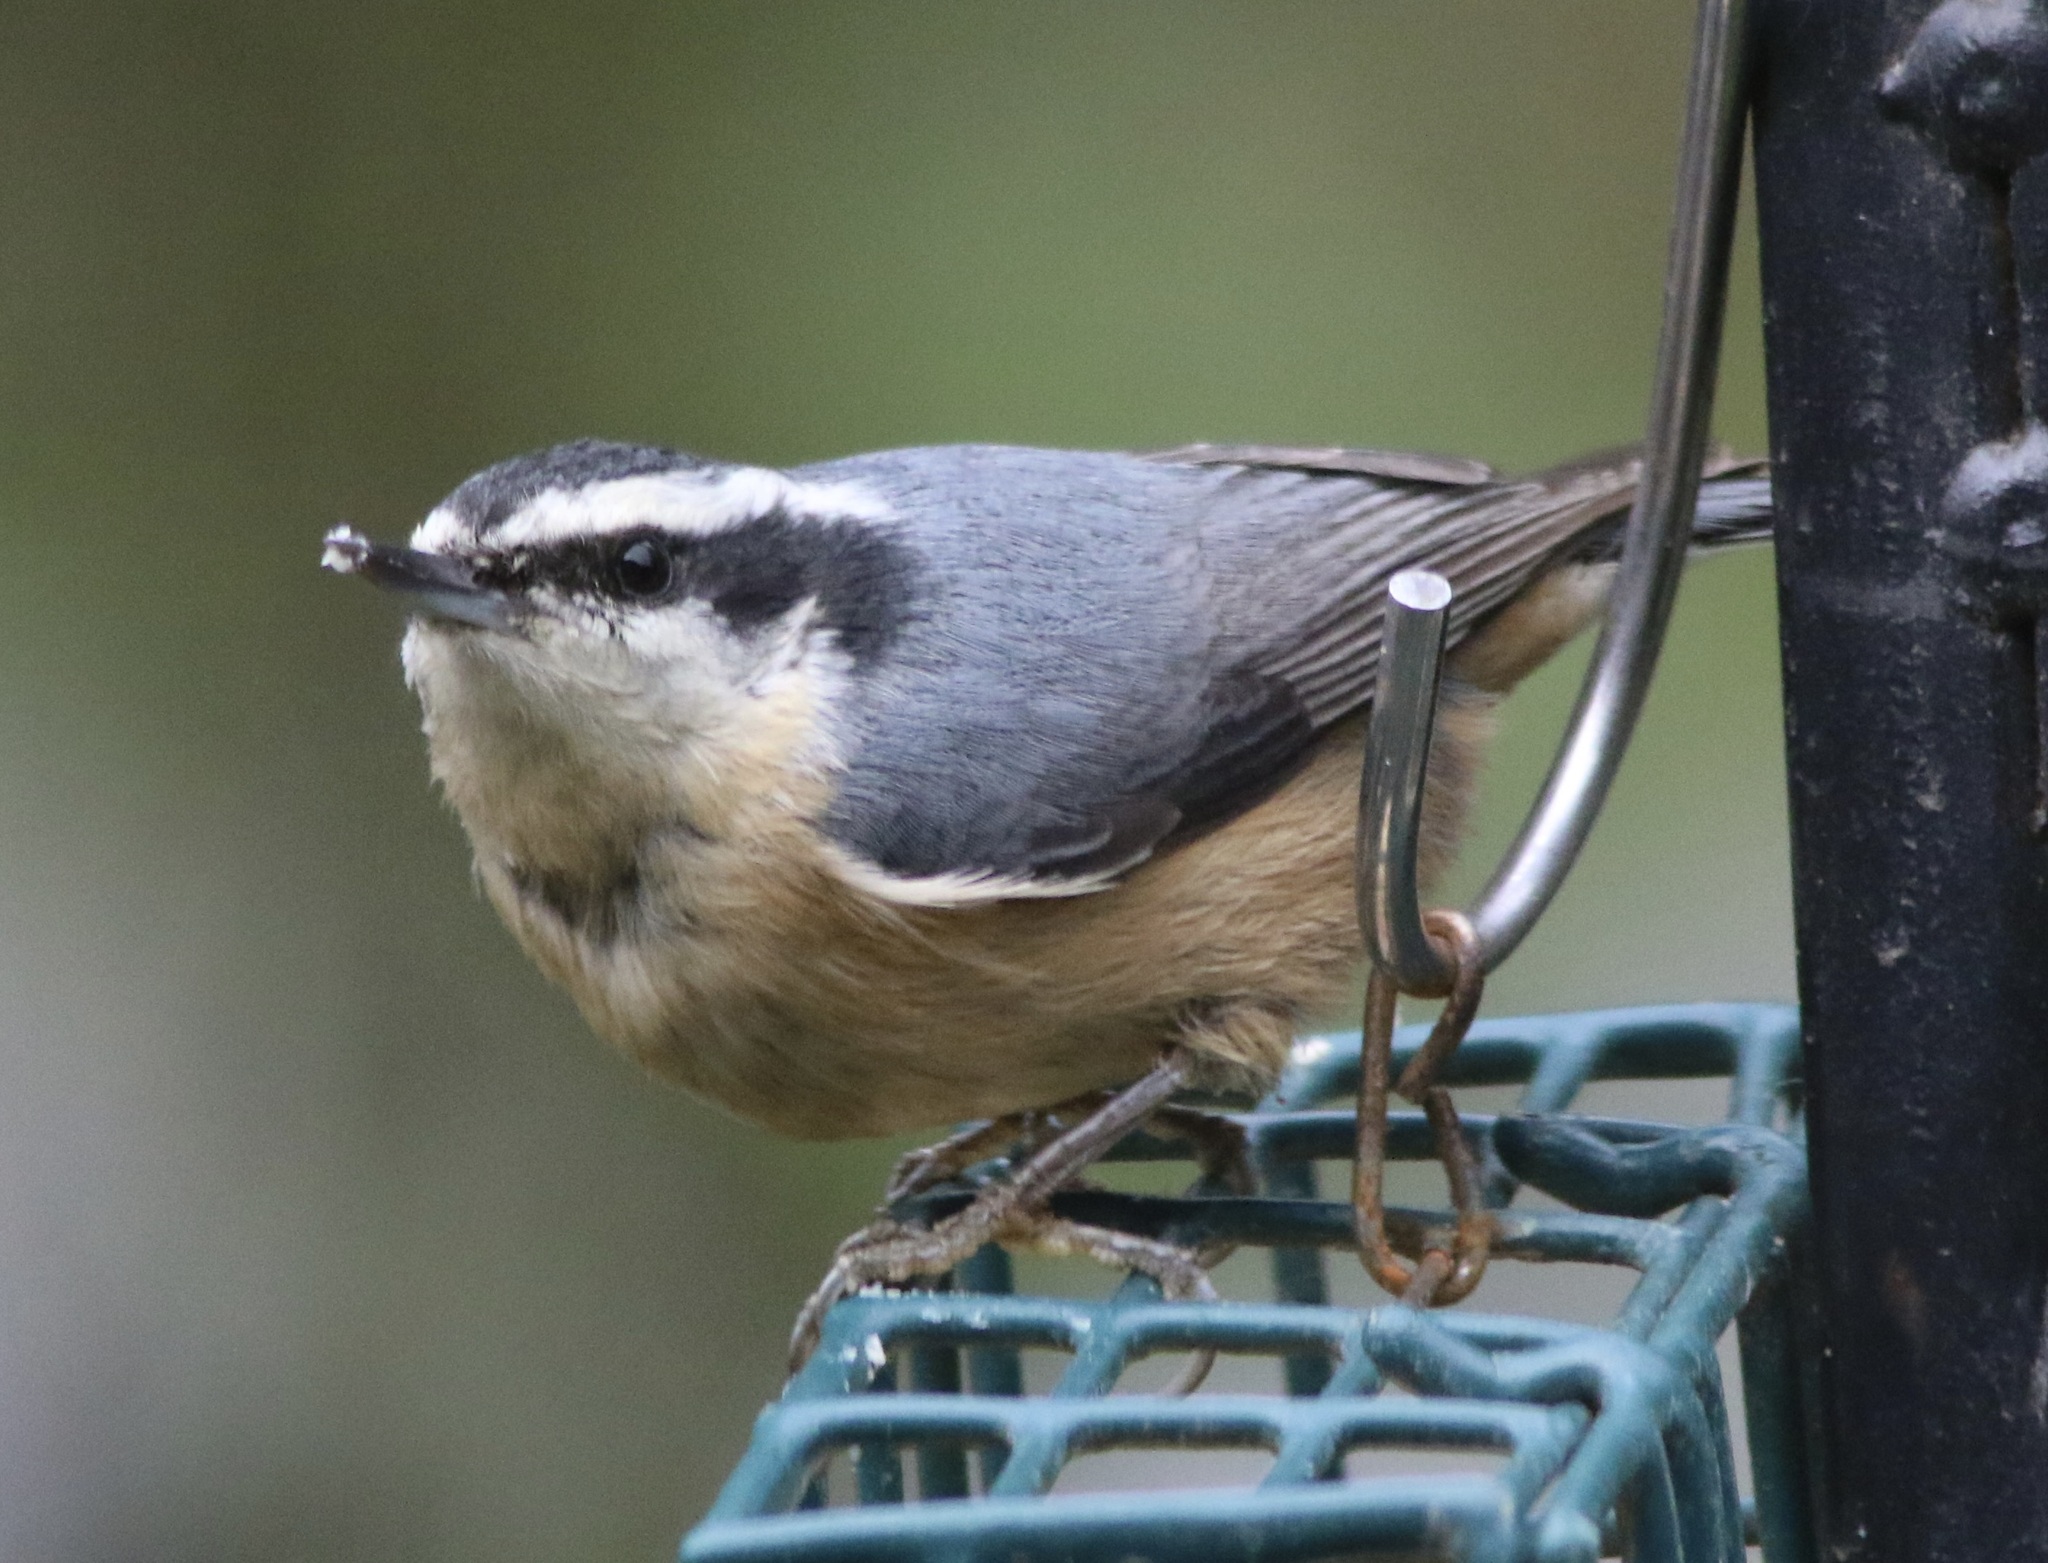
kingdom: Animalia
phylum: Chordata
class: Aves
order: Passeriformes
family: Sittidae
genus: Sitta
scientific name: Sitta canadensis
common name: Red-breasted nuthatch
